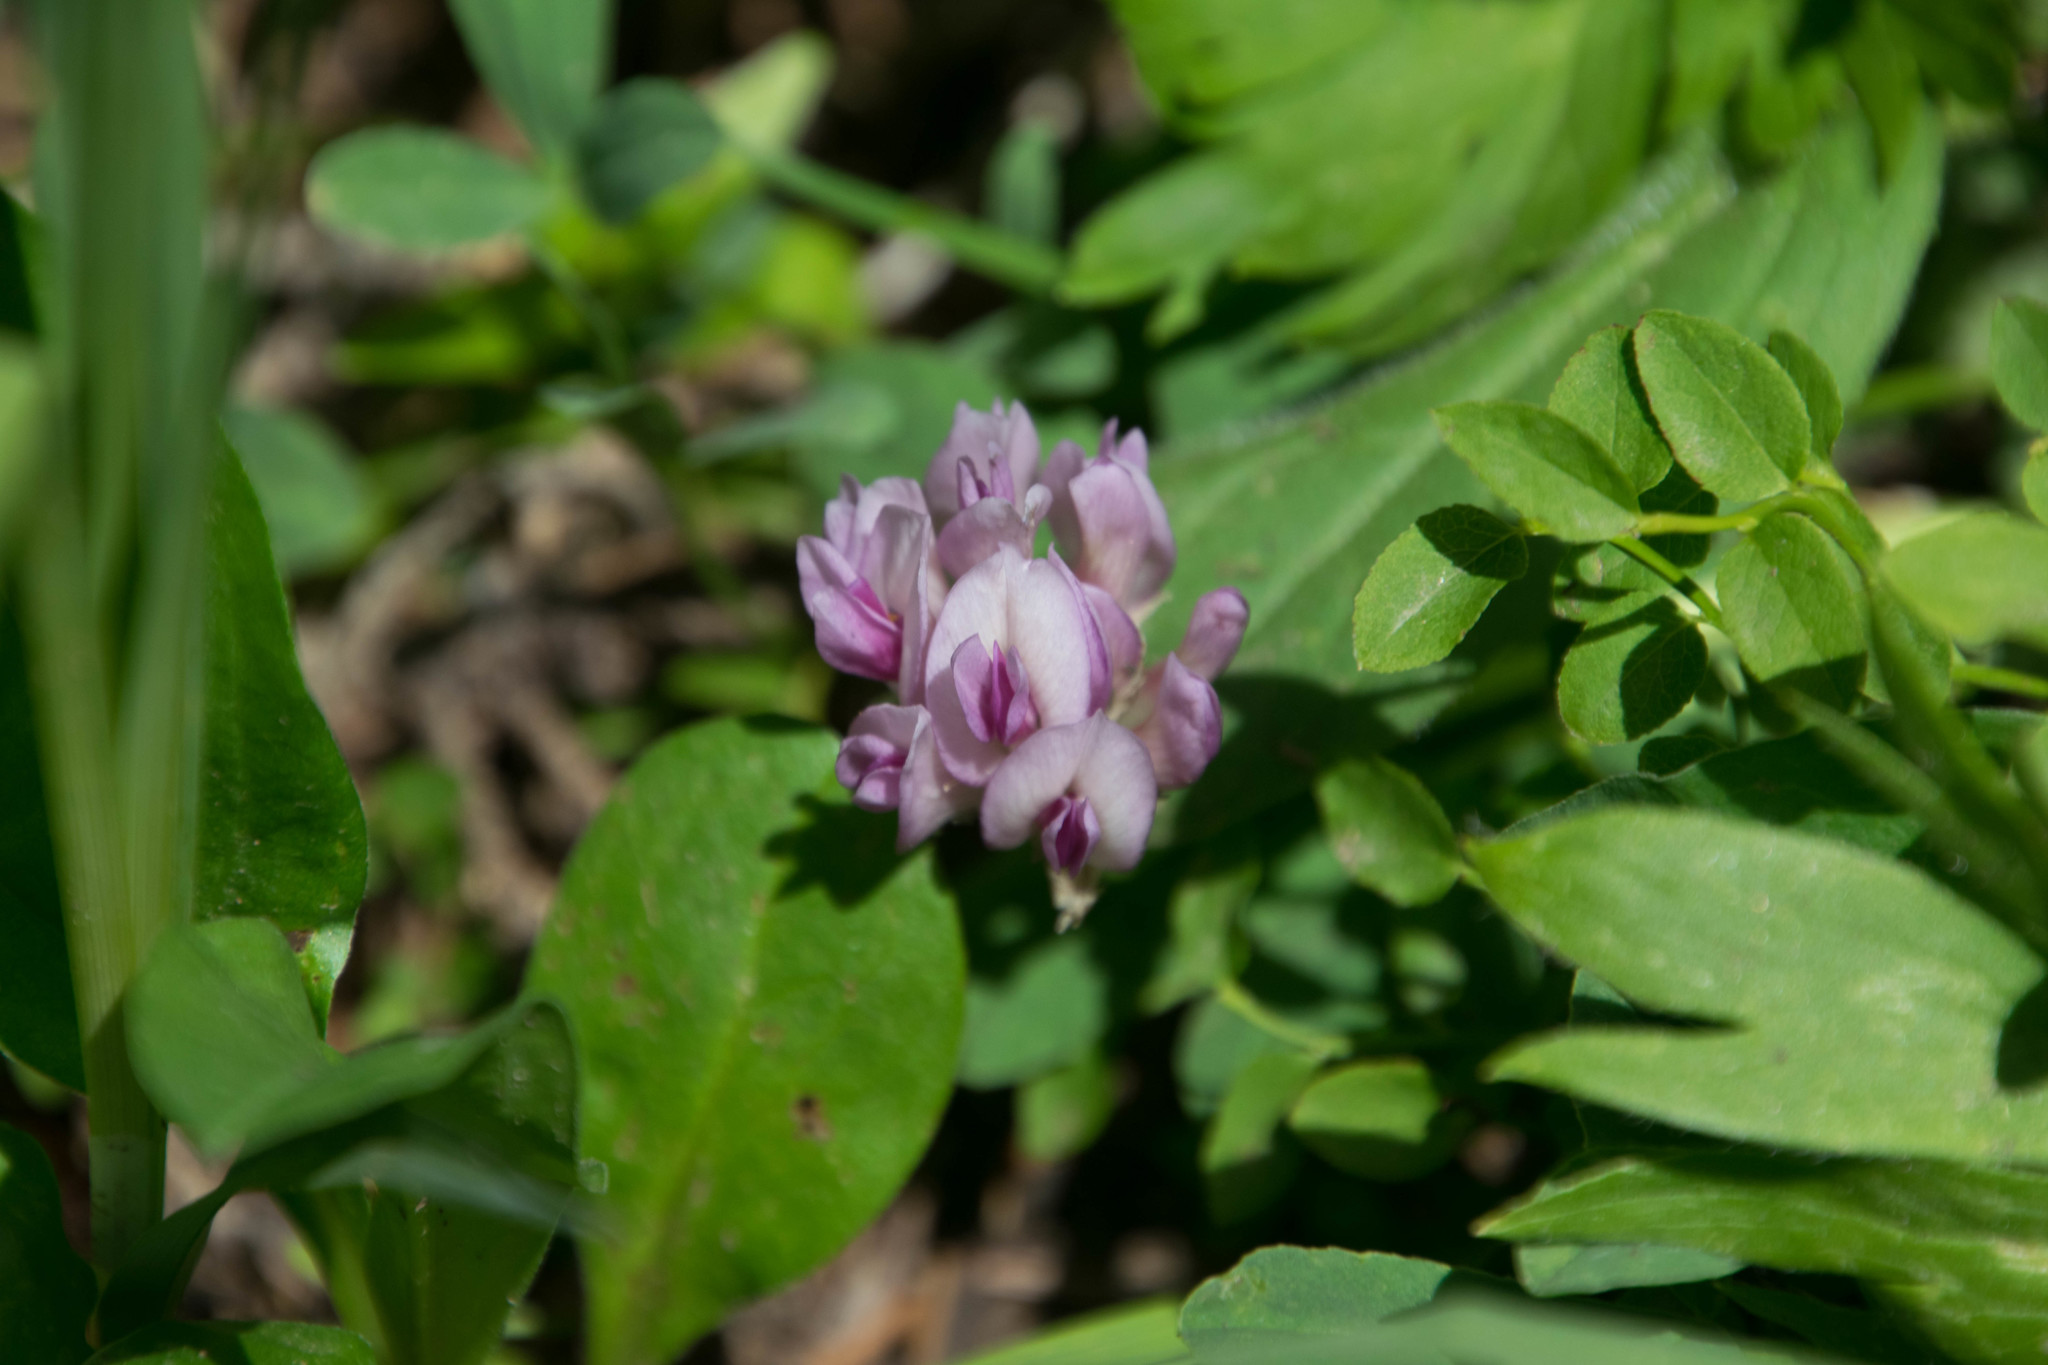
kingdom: Plantae
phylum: Tracheophyta
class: Magnoliopsida
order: Fabales
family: Fabaceae
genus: Trifolium
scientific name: Trifolium parryi
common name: Parry's clover
